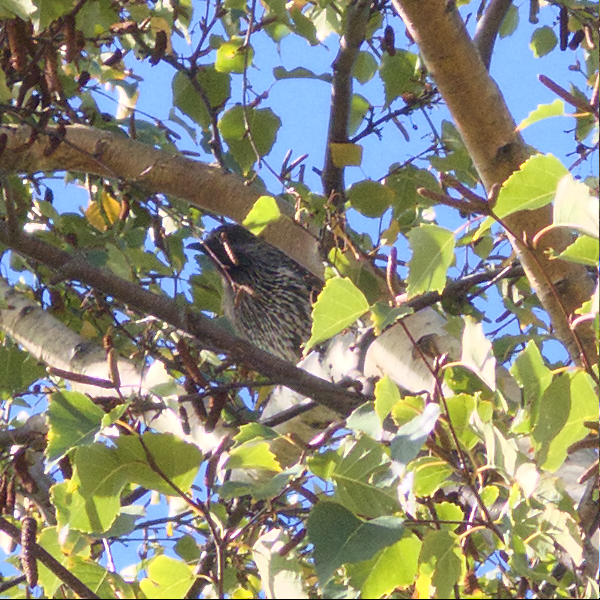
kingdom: Animalia
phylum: Chordata
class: Aves
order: Passeriformes
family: Meliphagidae
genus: Anthochaera
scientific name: Anthochaera chrysoptera
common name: Little wattlebird
